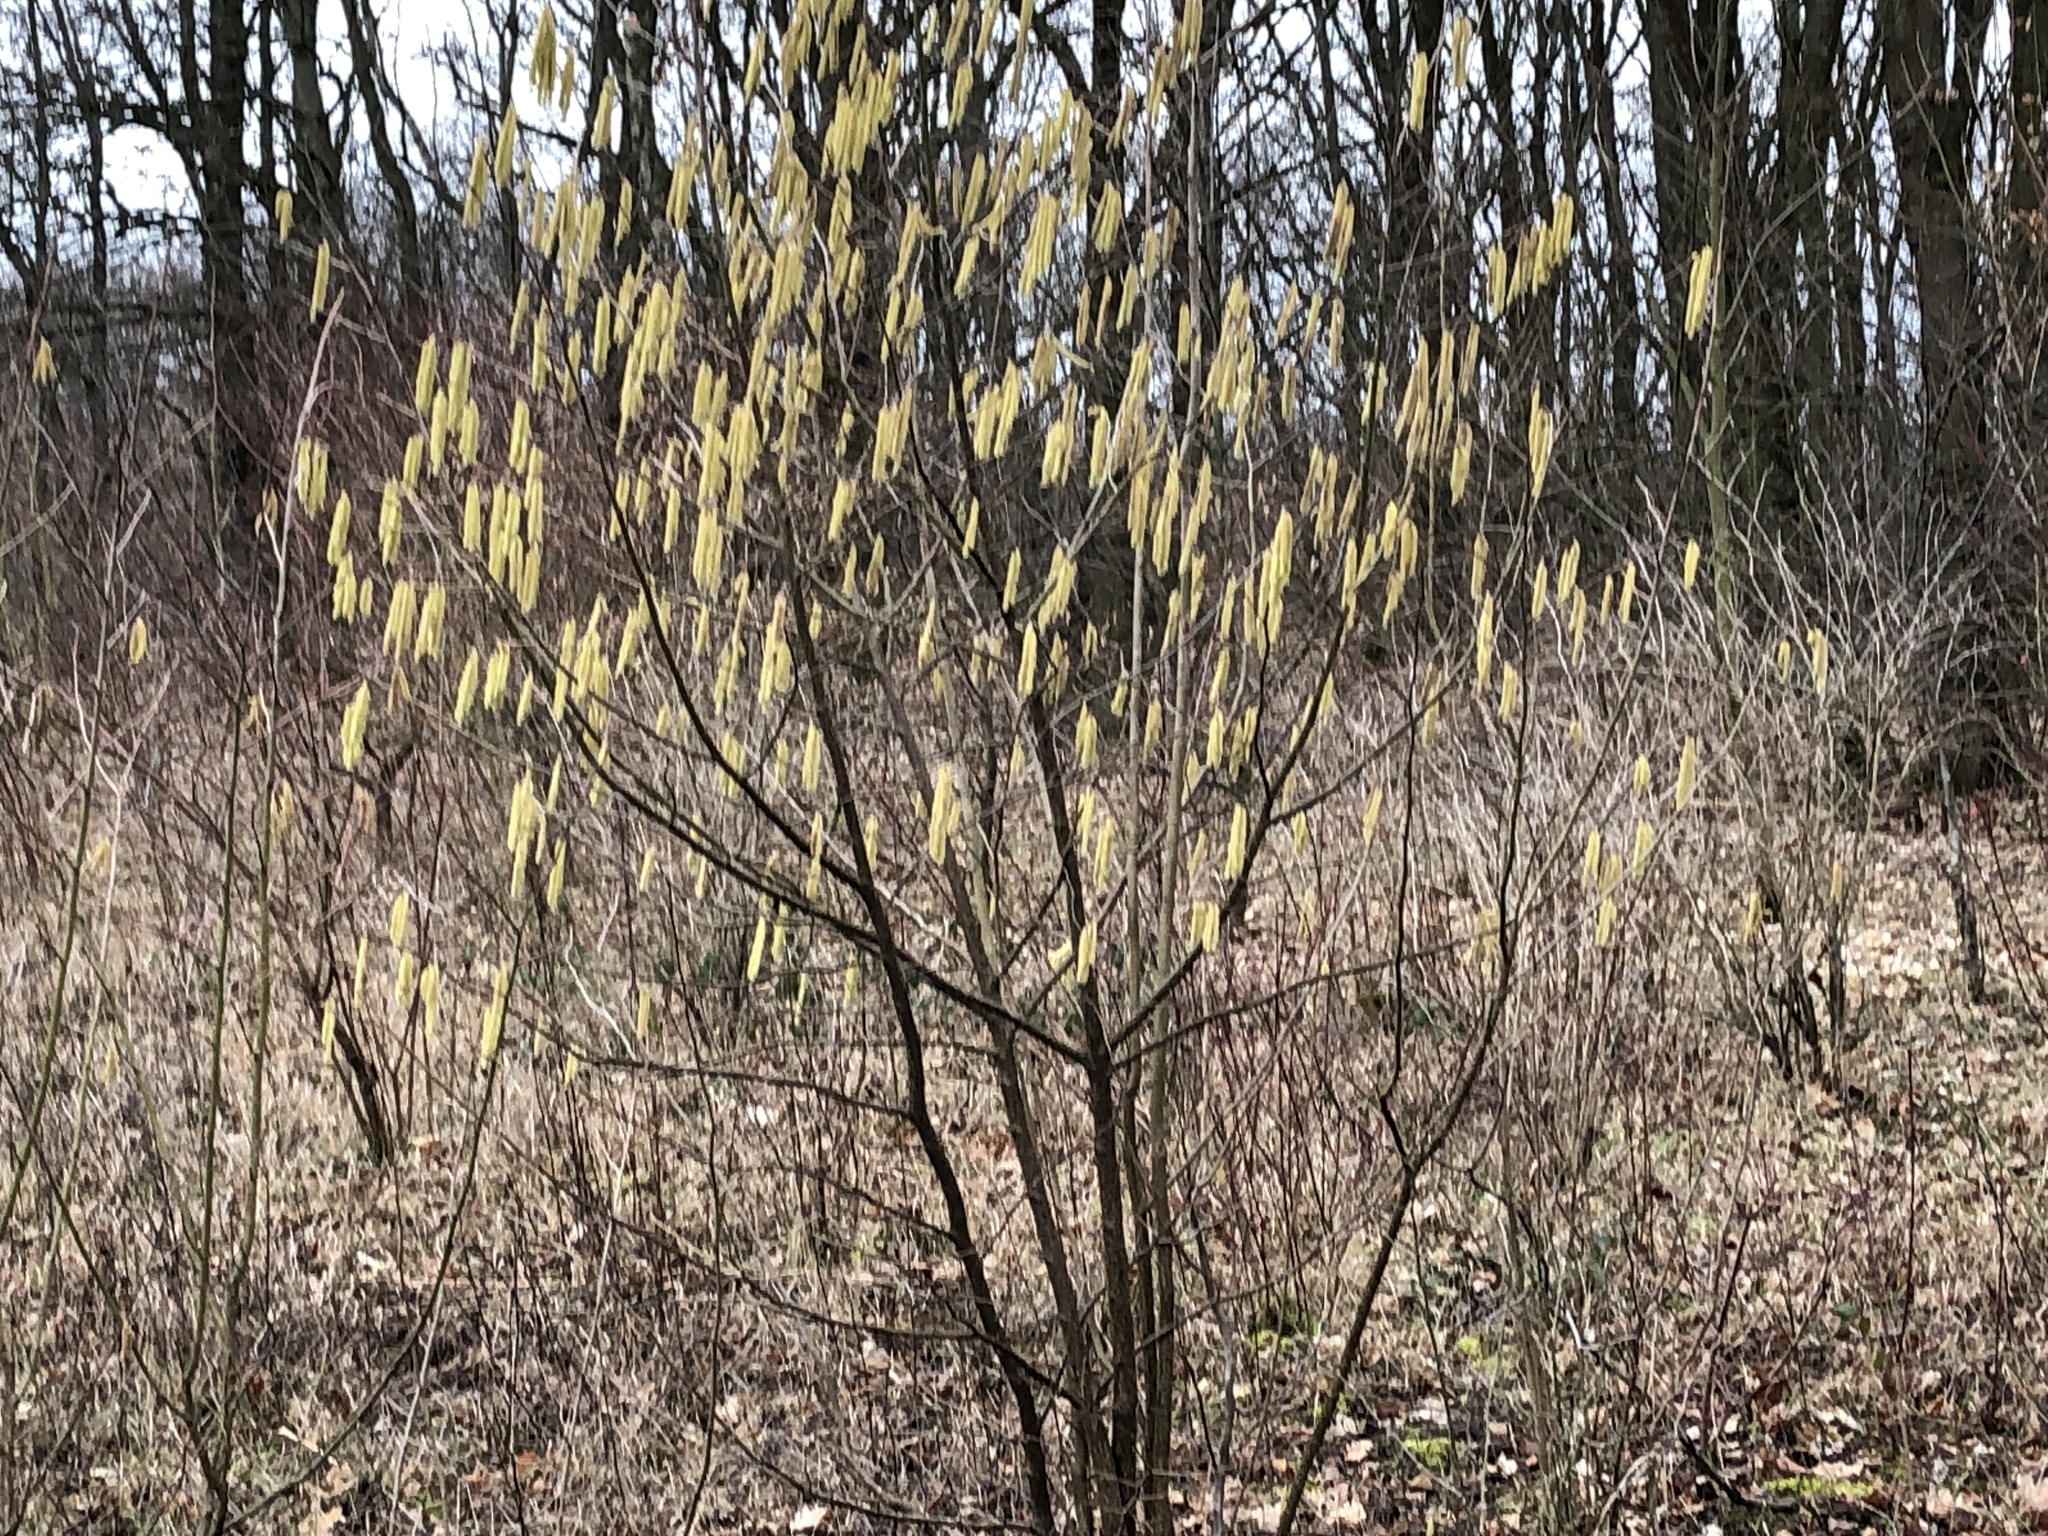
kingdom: Plantae
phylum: Tracheophyta
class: Magnoliopsida
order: Fagales
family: Betulaceae
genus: Corylus
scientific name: Corylus avellana
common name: European hazel
